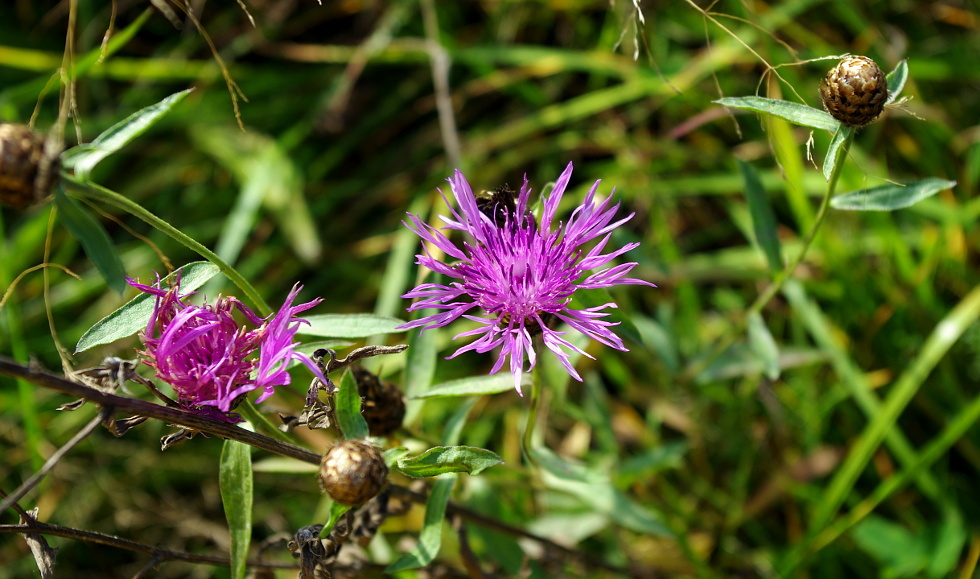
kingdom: Plantae
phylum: Tracheophyta
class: Magnoliopsida
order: Asterales
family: Asteraceae
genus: Centaurea
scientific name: Centaurea jacea
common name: Brown knapweed
